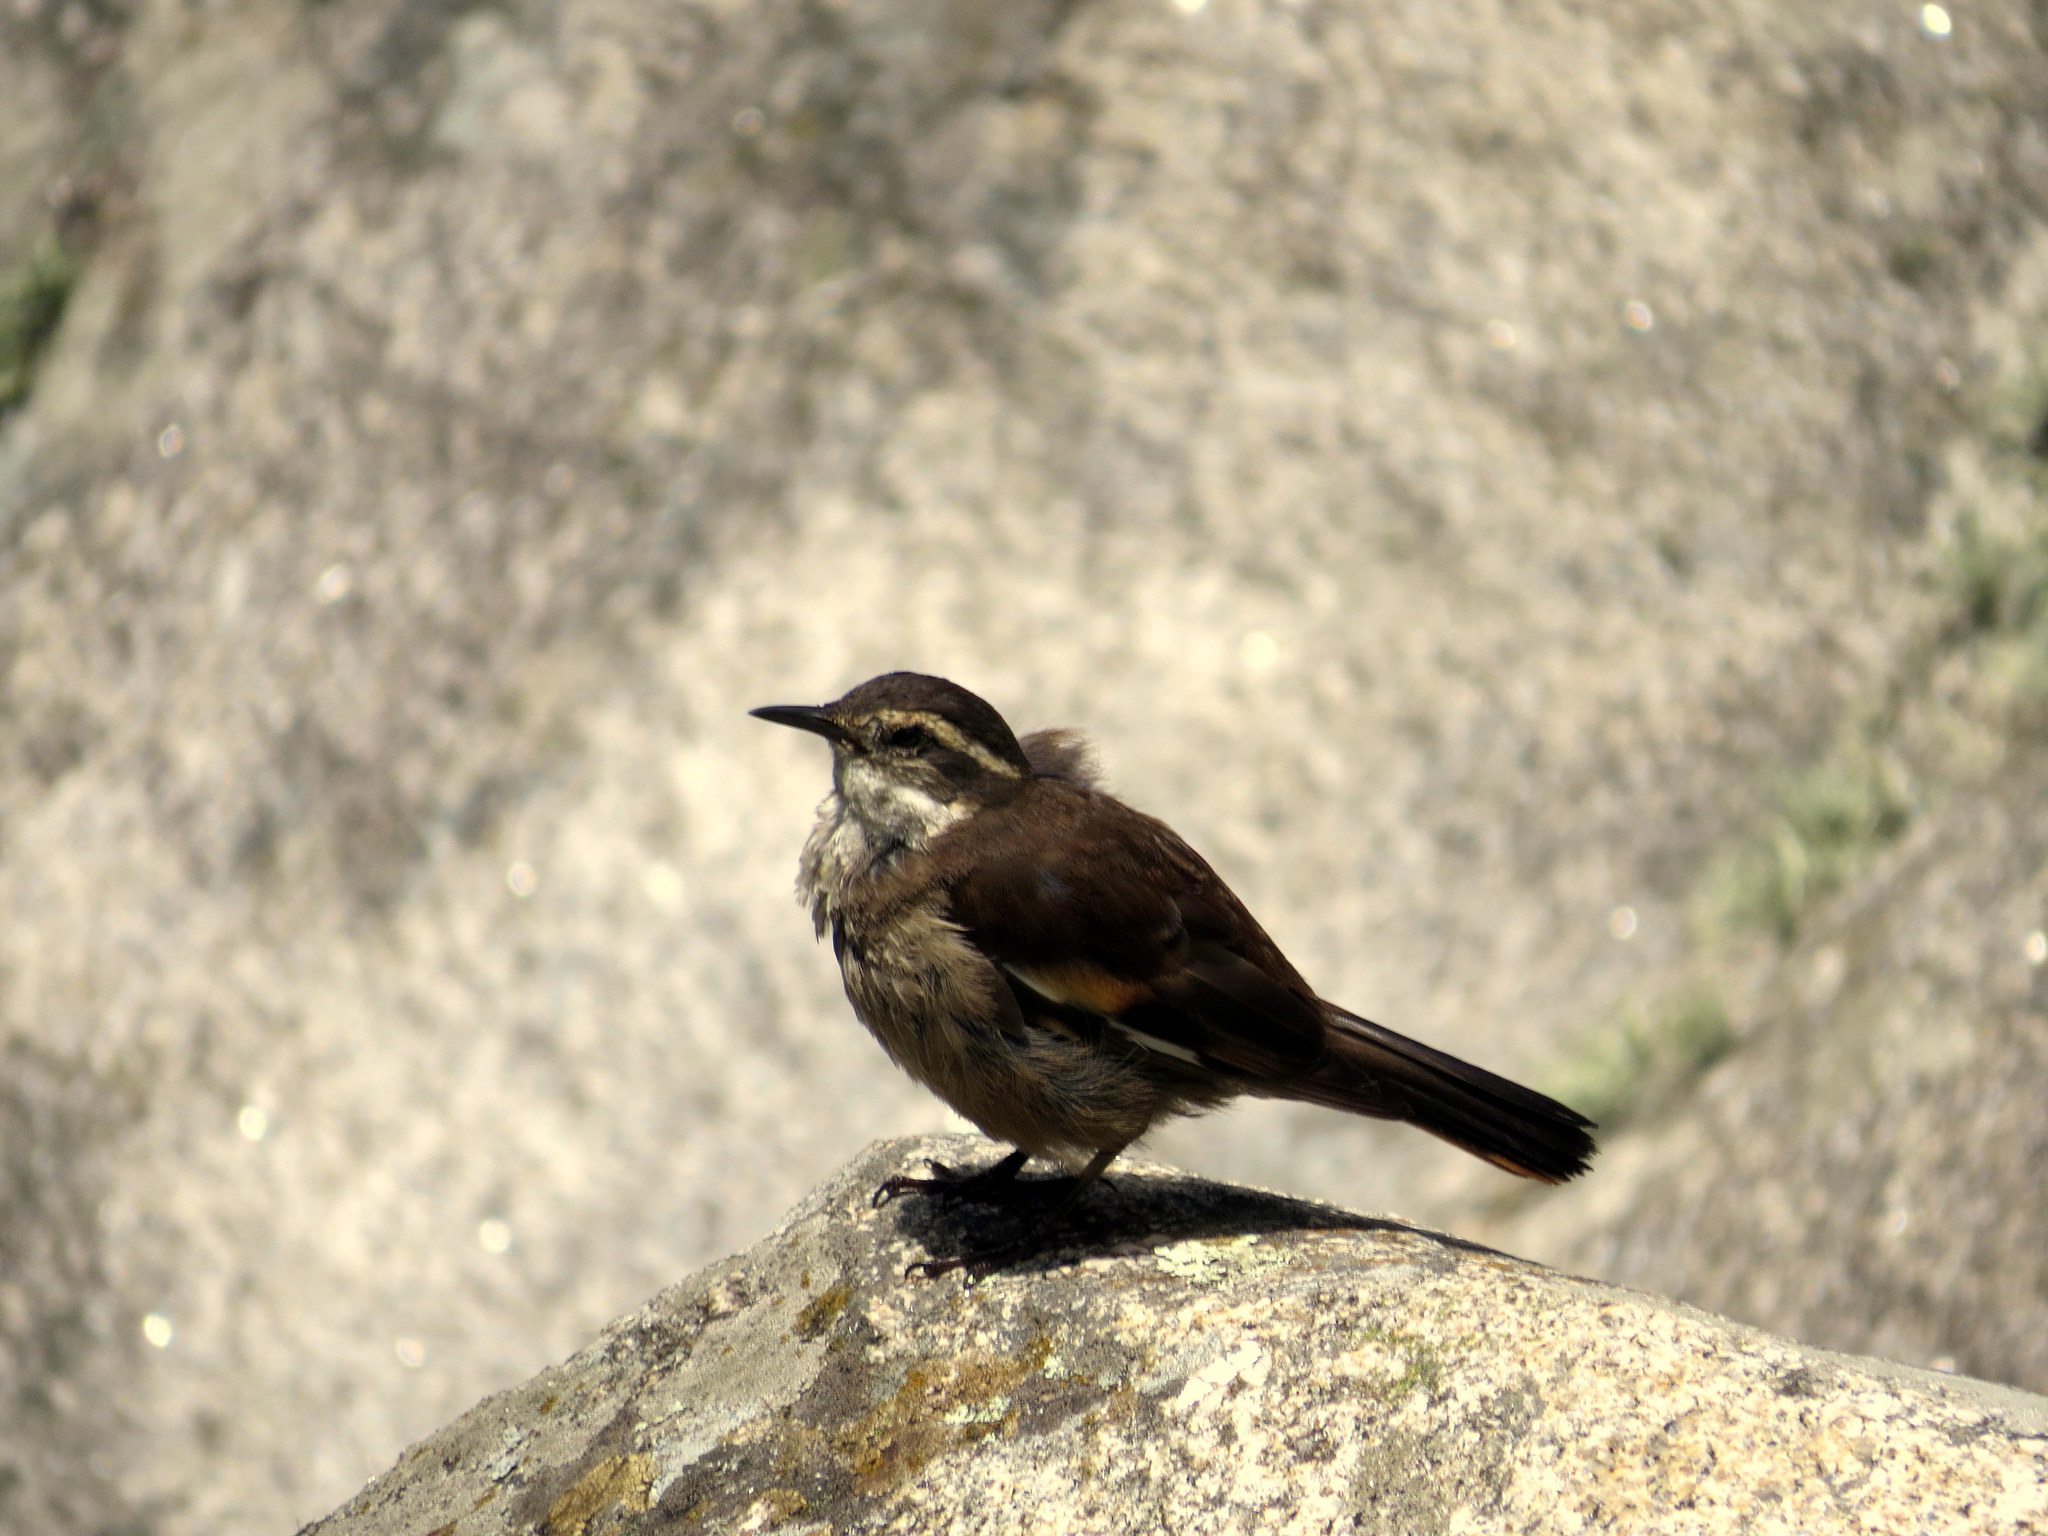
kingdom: Animalia
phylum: Chordata
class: Aves
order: Passeriformes
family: Furnariidae
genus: Cinclodes
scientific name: Cinclodes olrogi
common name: Olrog's cinclodes
